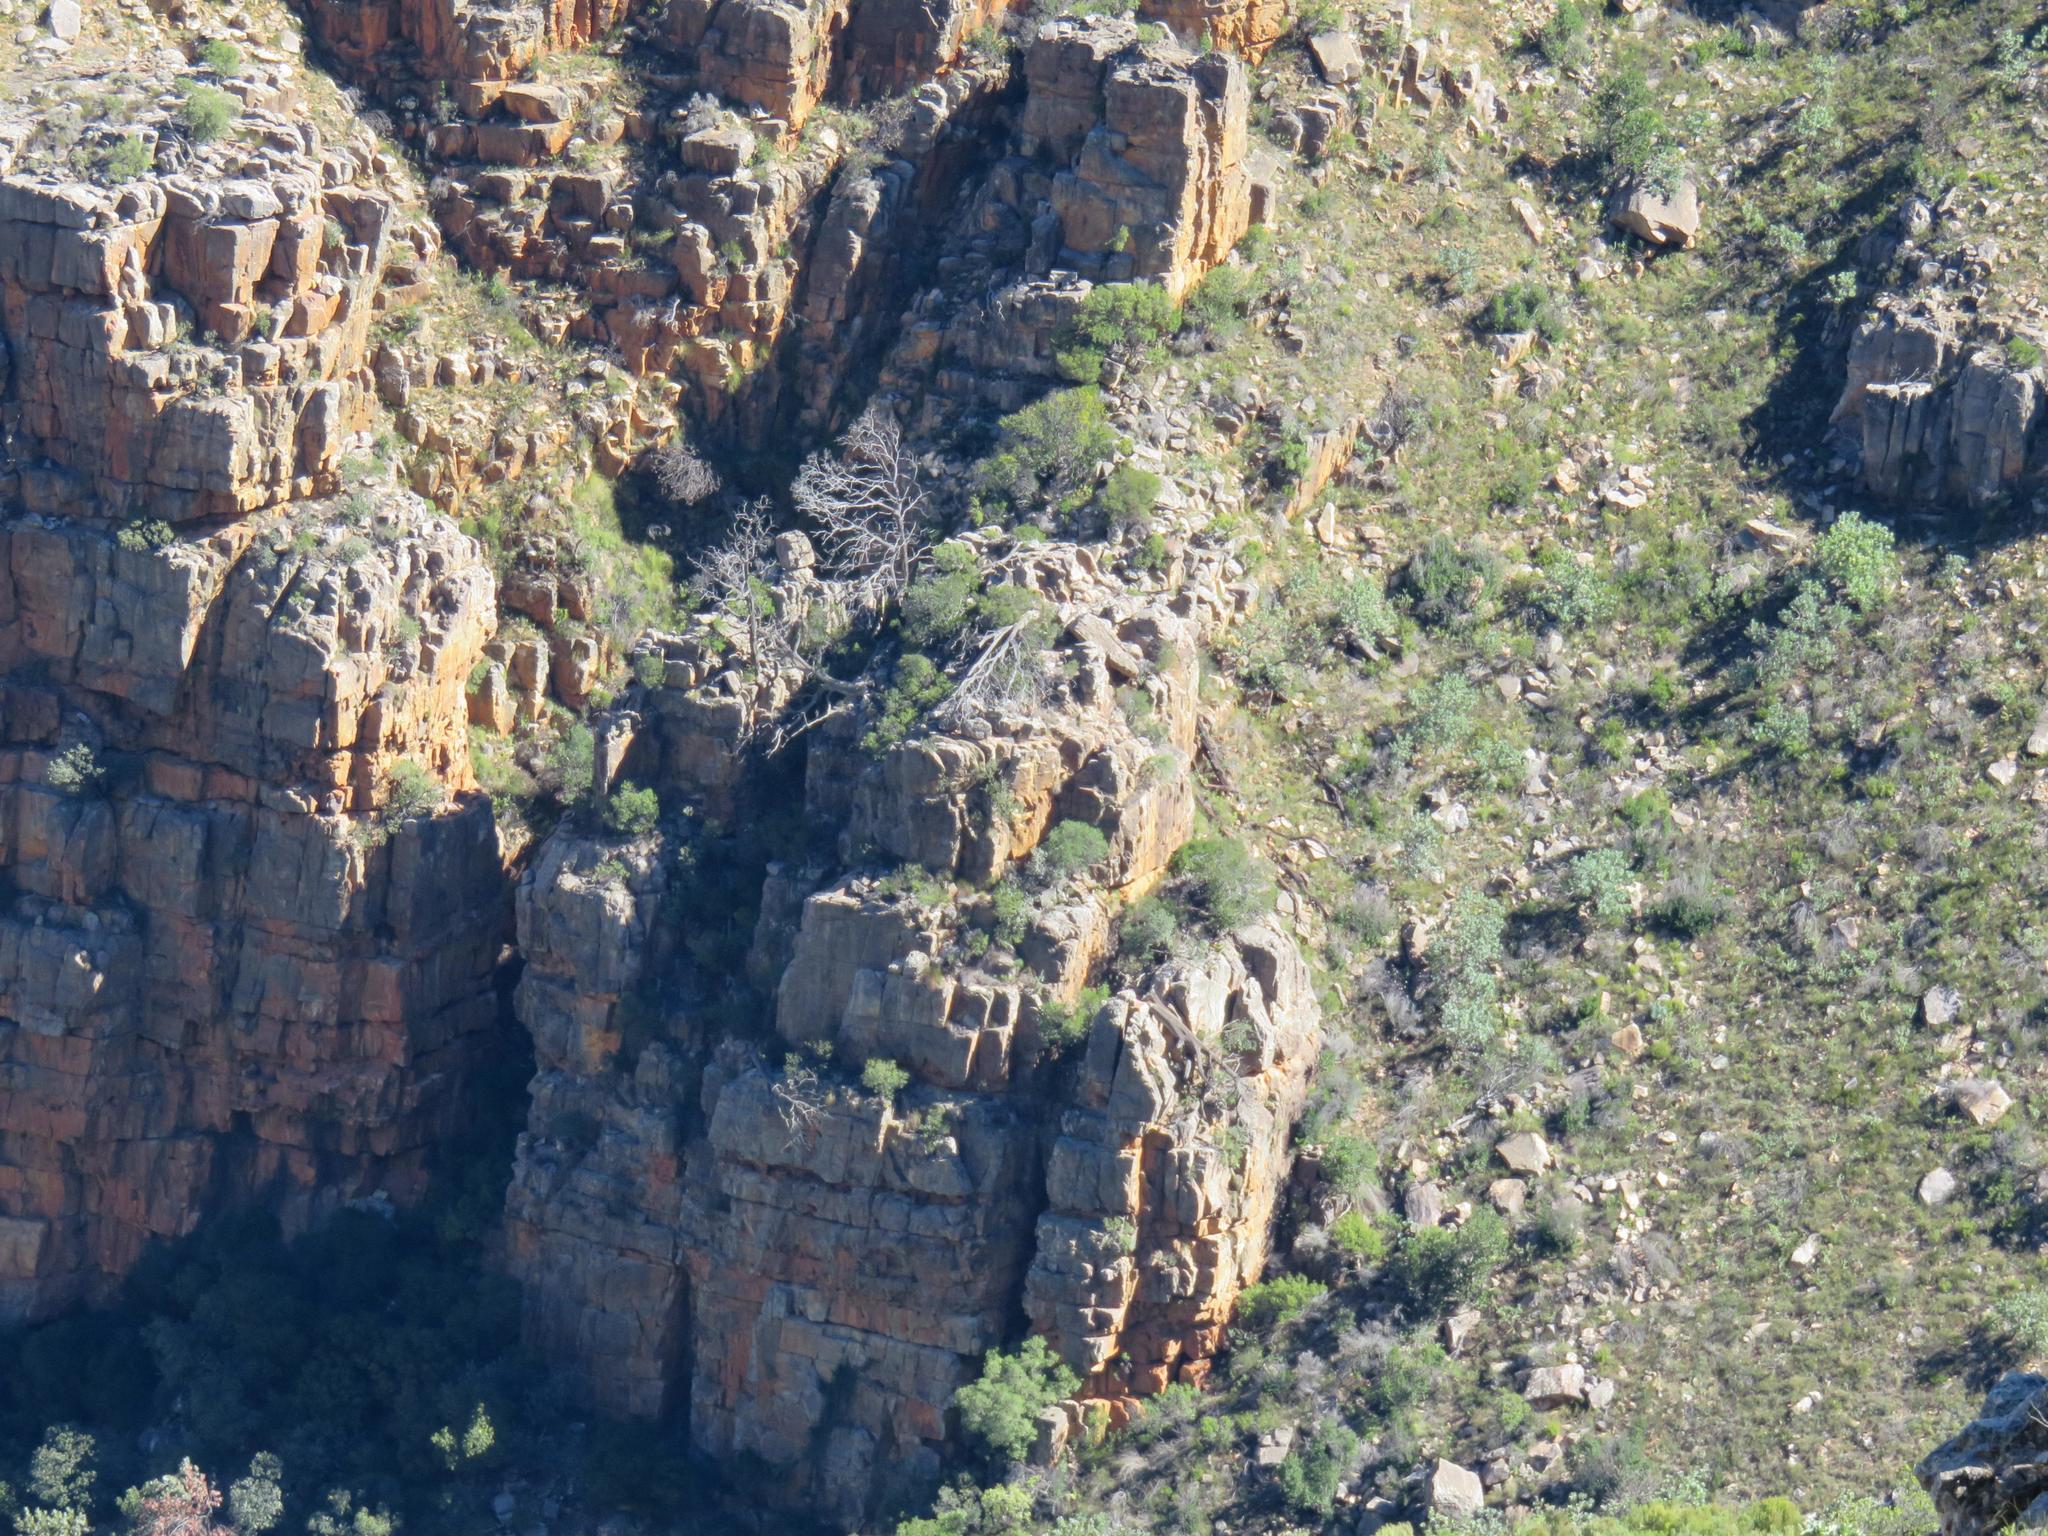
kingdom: Plantae
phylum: Tracheophyta
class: Pinopsida
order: Pinales
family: Cupressaceae
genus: Widdringtonia
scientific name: Widdringtonia nodiflora
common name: Cape cypress
